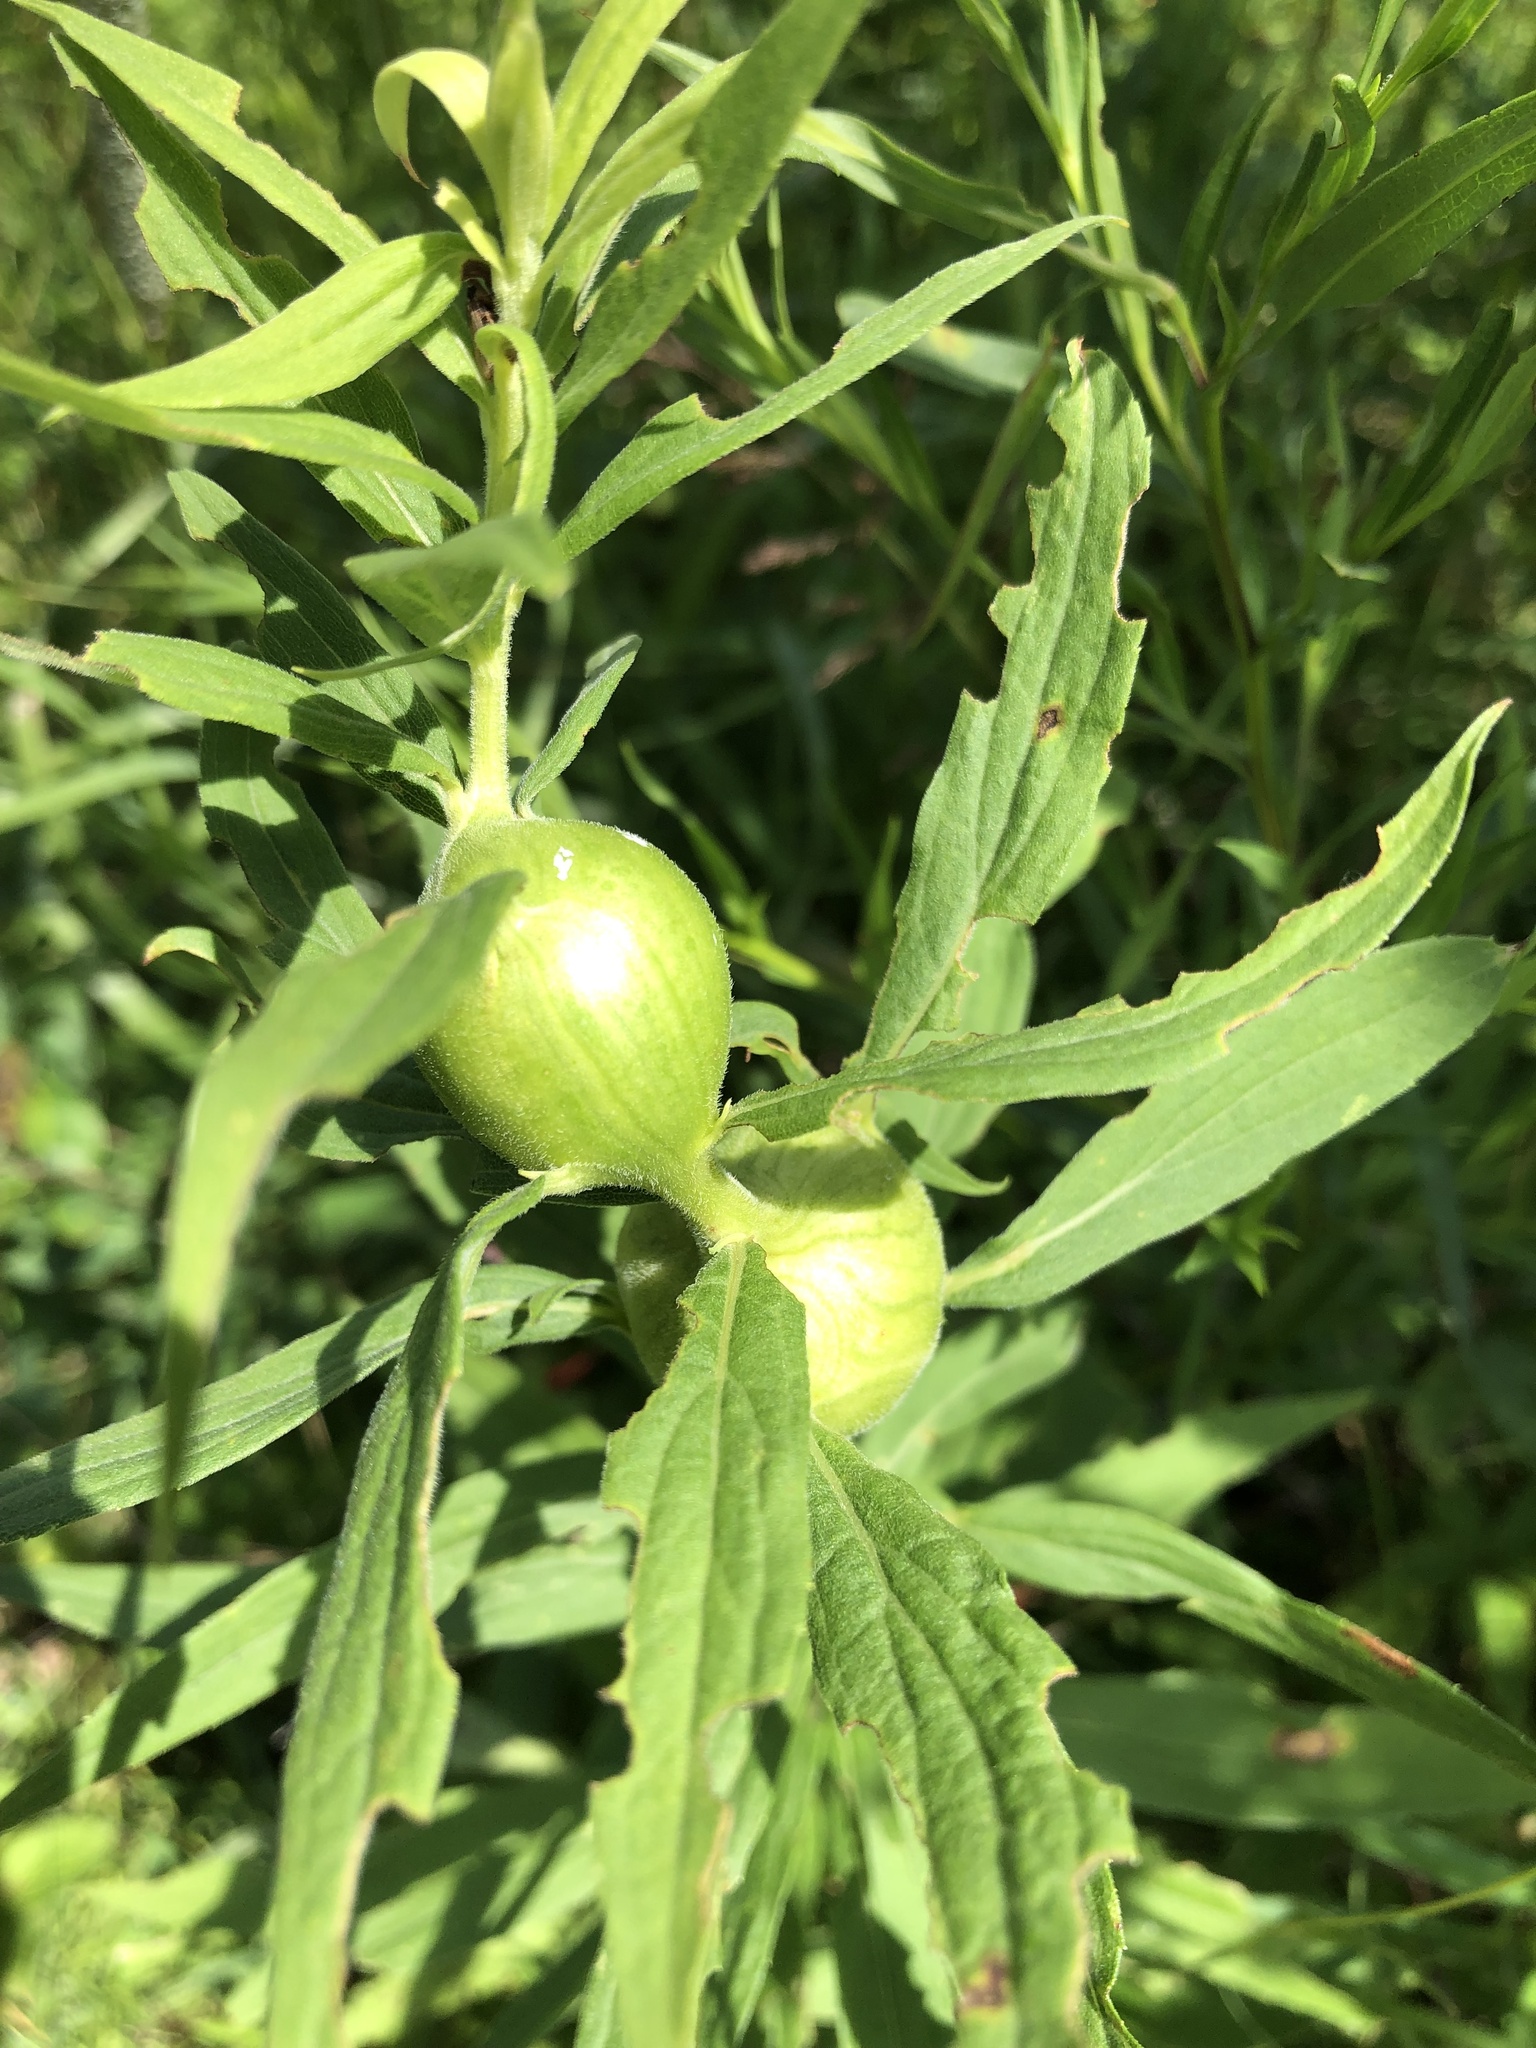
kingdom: Animalia
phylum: Arthropoda
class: Insecta
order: Diptera
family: Tephritidae
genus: Eurosta
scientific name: Eurosta solidaginis
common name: Goldenrod gall fly
